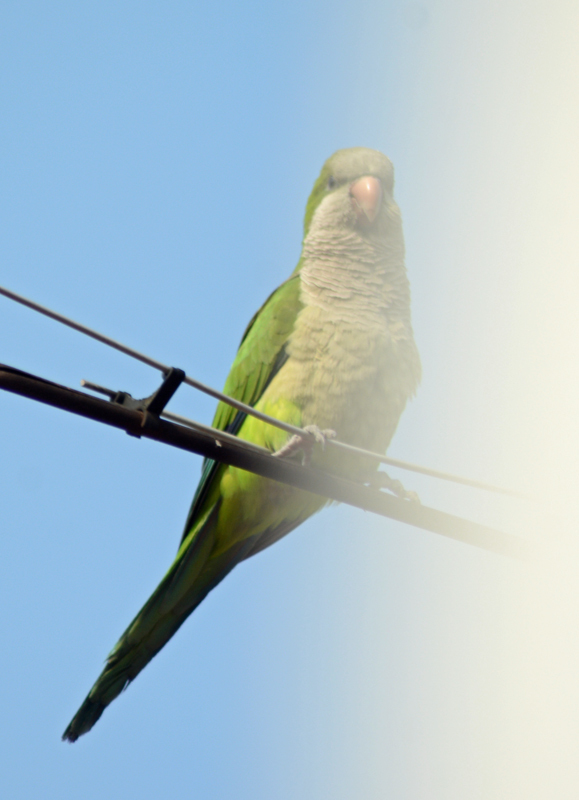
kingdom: Animalia
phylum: Chordata
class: Aves
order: Psittaciformes
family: Psittacidae
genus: Myiopsitta
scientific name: Myiopsitta monachus
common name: Monk parakeet
